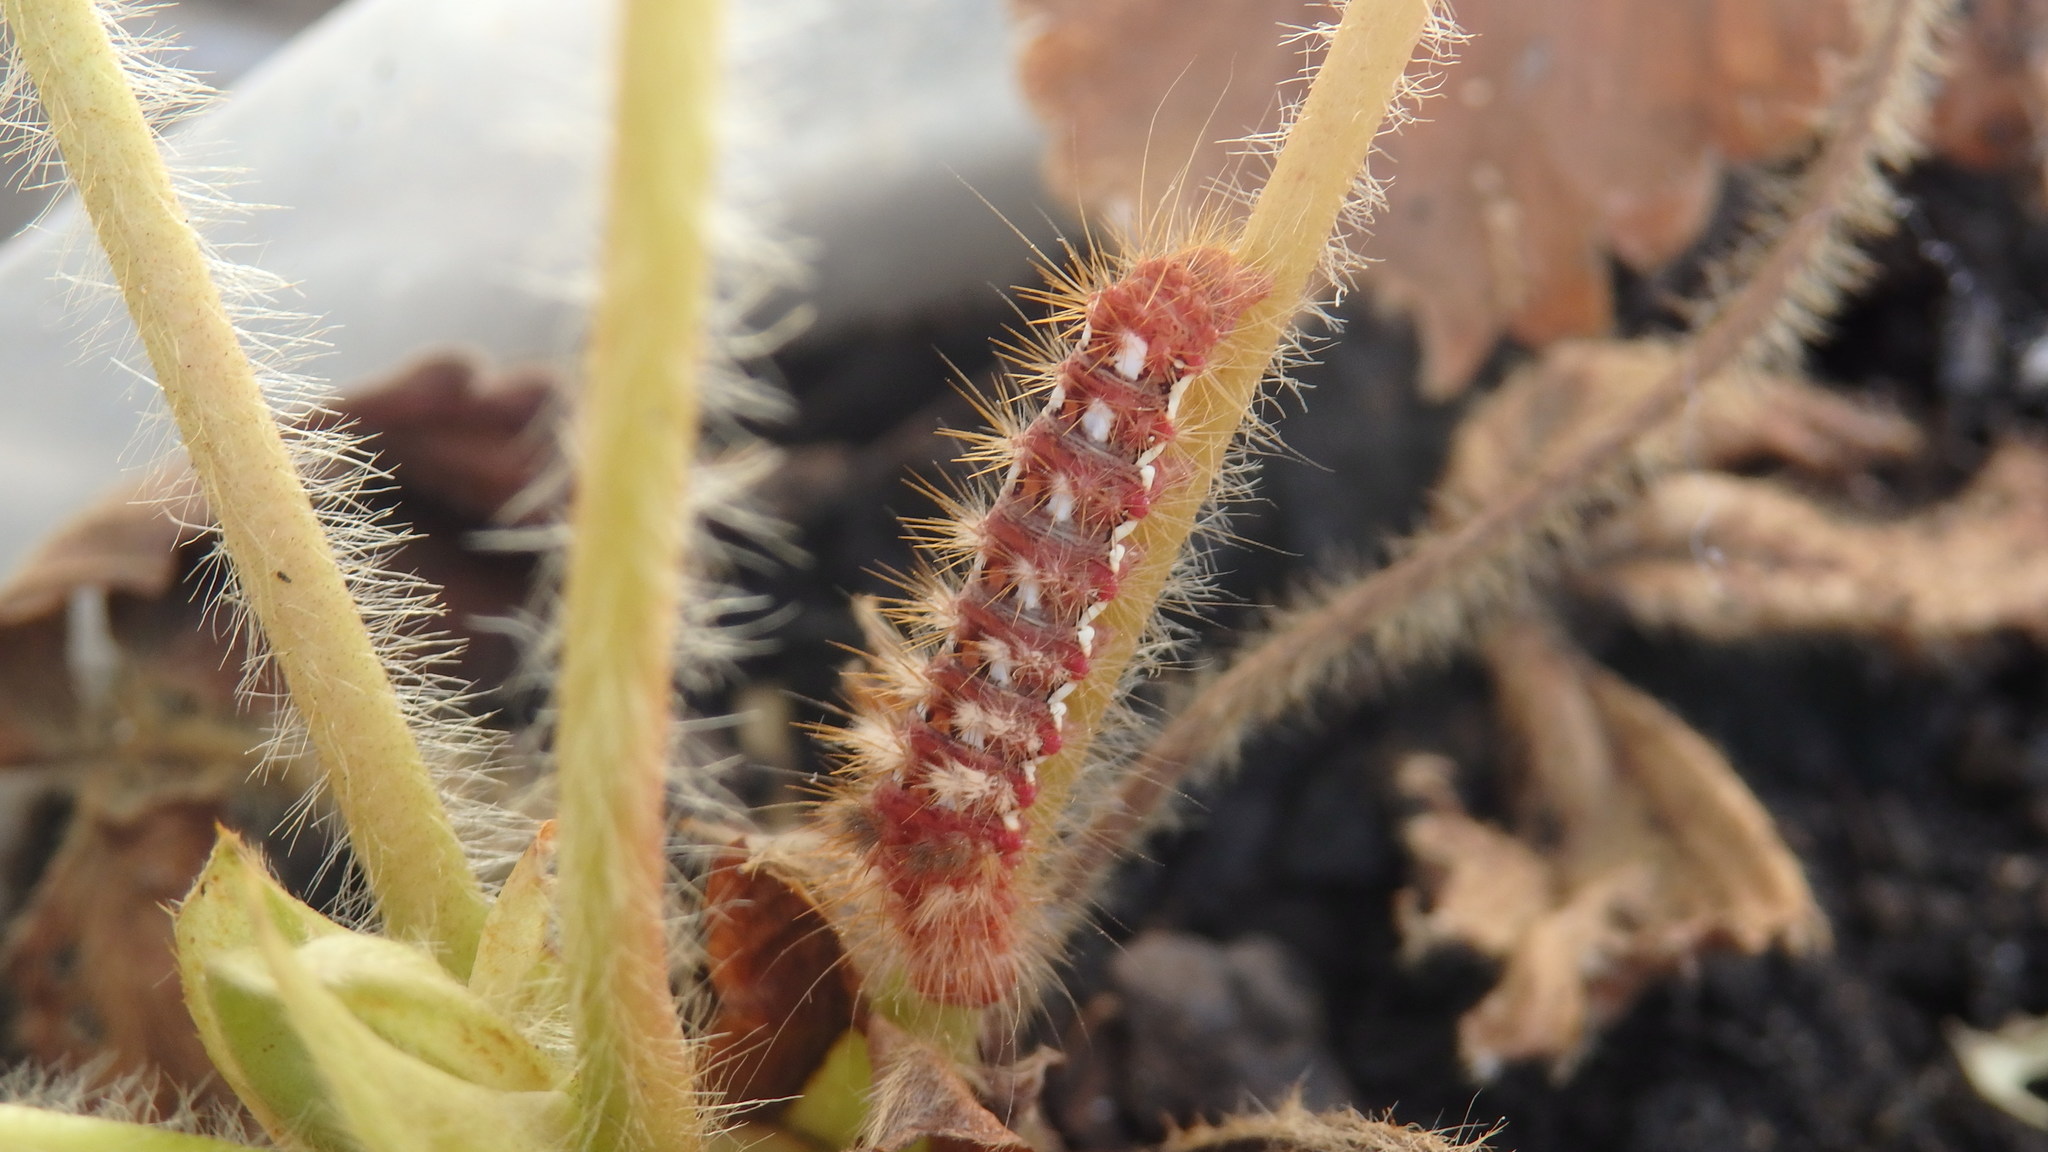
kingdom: Animalia
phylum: Arthropoda
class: Insecta
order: Lepidoptera
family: Noctuidae
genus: Acronicta
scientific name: Acronicta rumicis
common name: Knot grass
